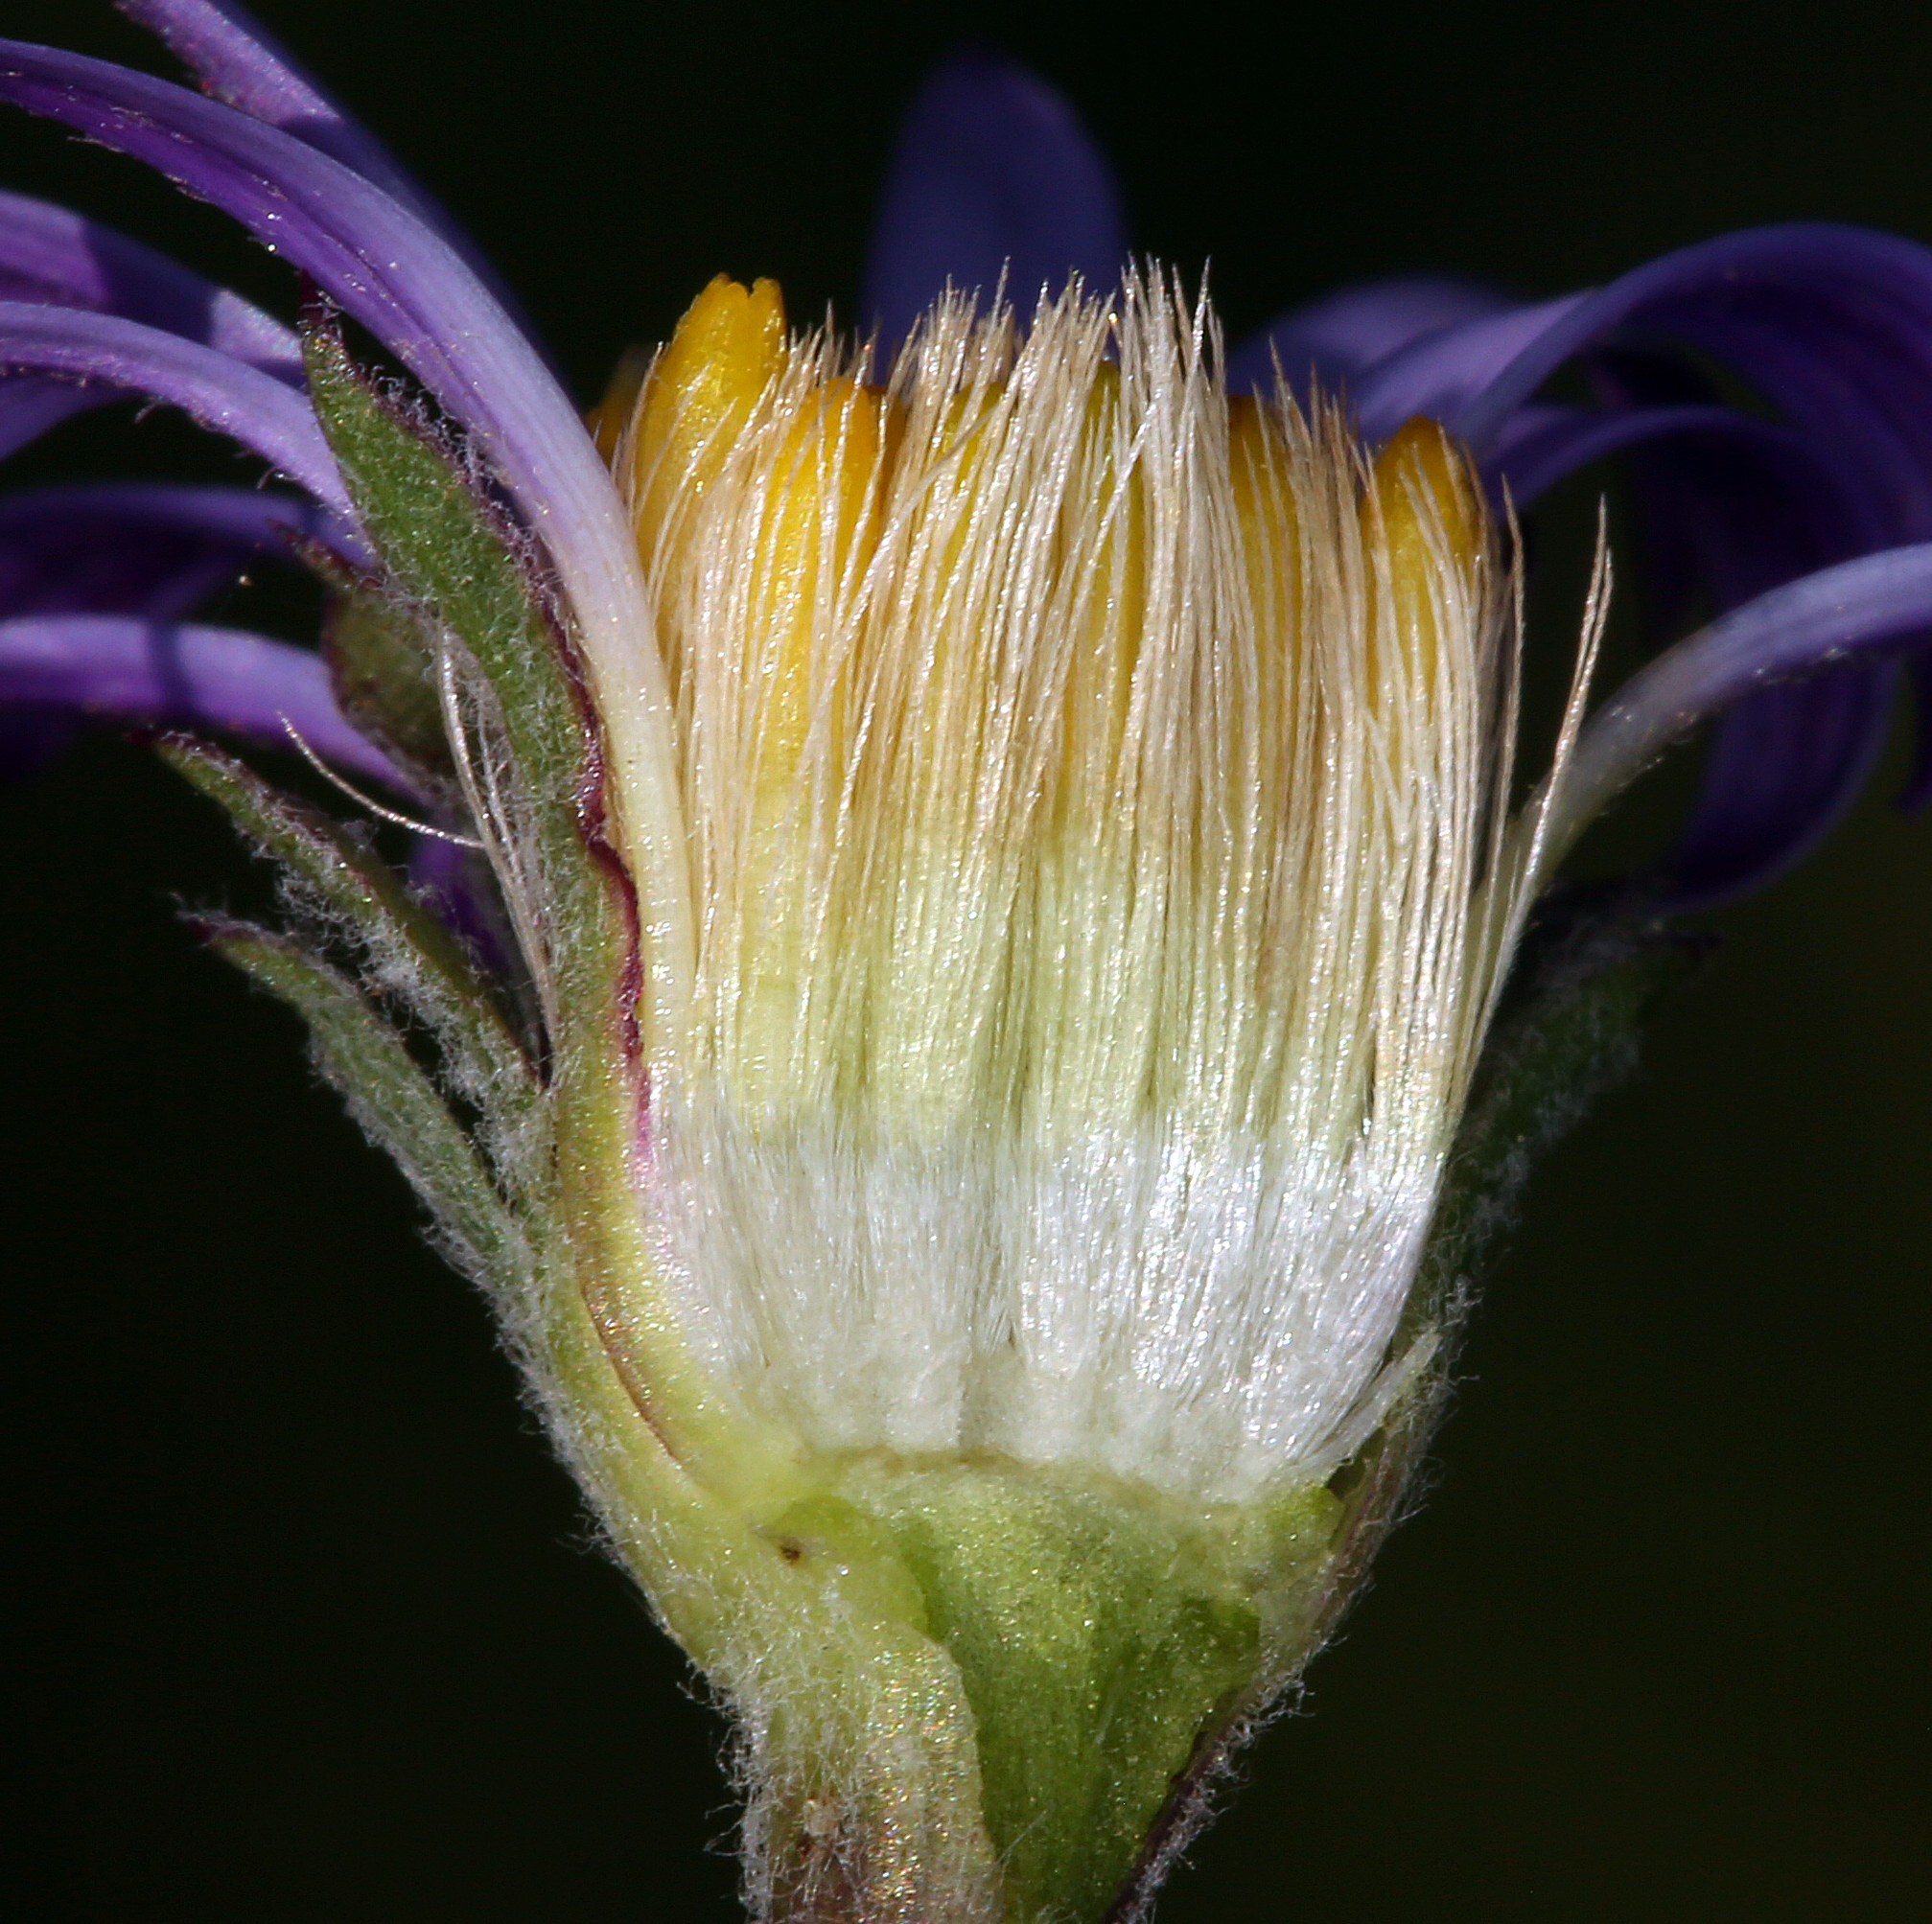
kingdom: Plantae
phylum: Tracheophyta
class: Magnoliopsida
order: Asterales
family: Asteraceae
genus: Oreostemma
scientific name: Oreostemma alpigenum
